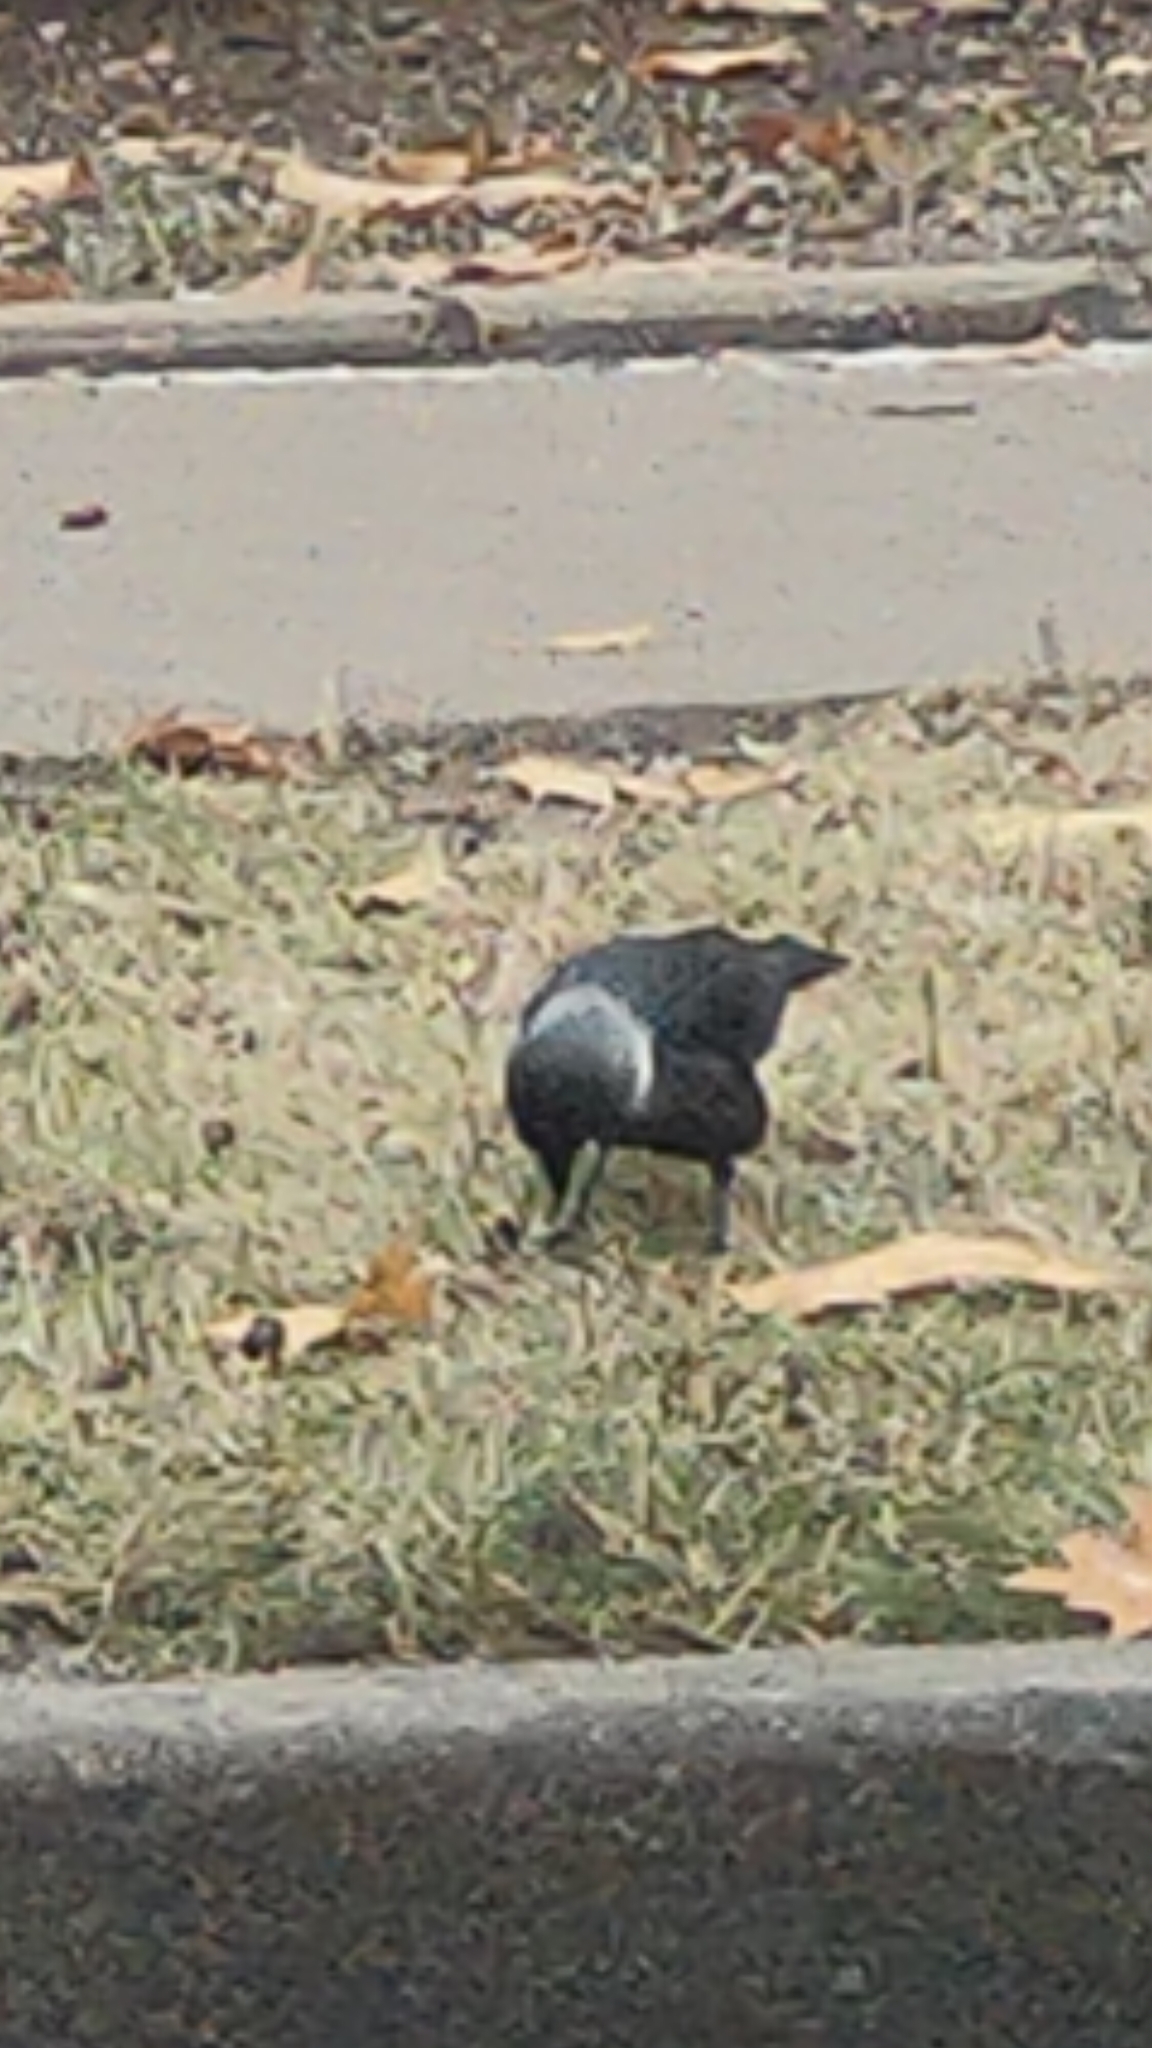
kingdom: Animalia
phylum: Chordata
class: Aves
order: Passeriformes
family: Corvidae
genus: Coloeus
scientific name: Coloeus monedula
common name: Western jackdaw
